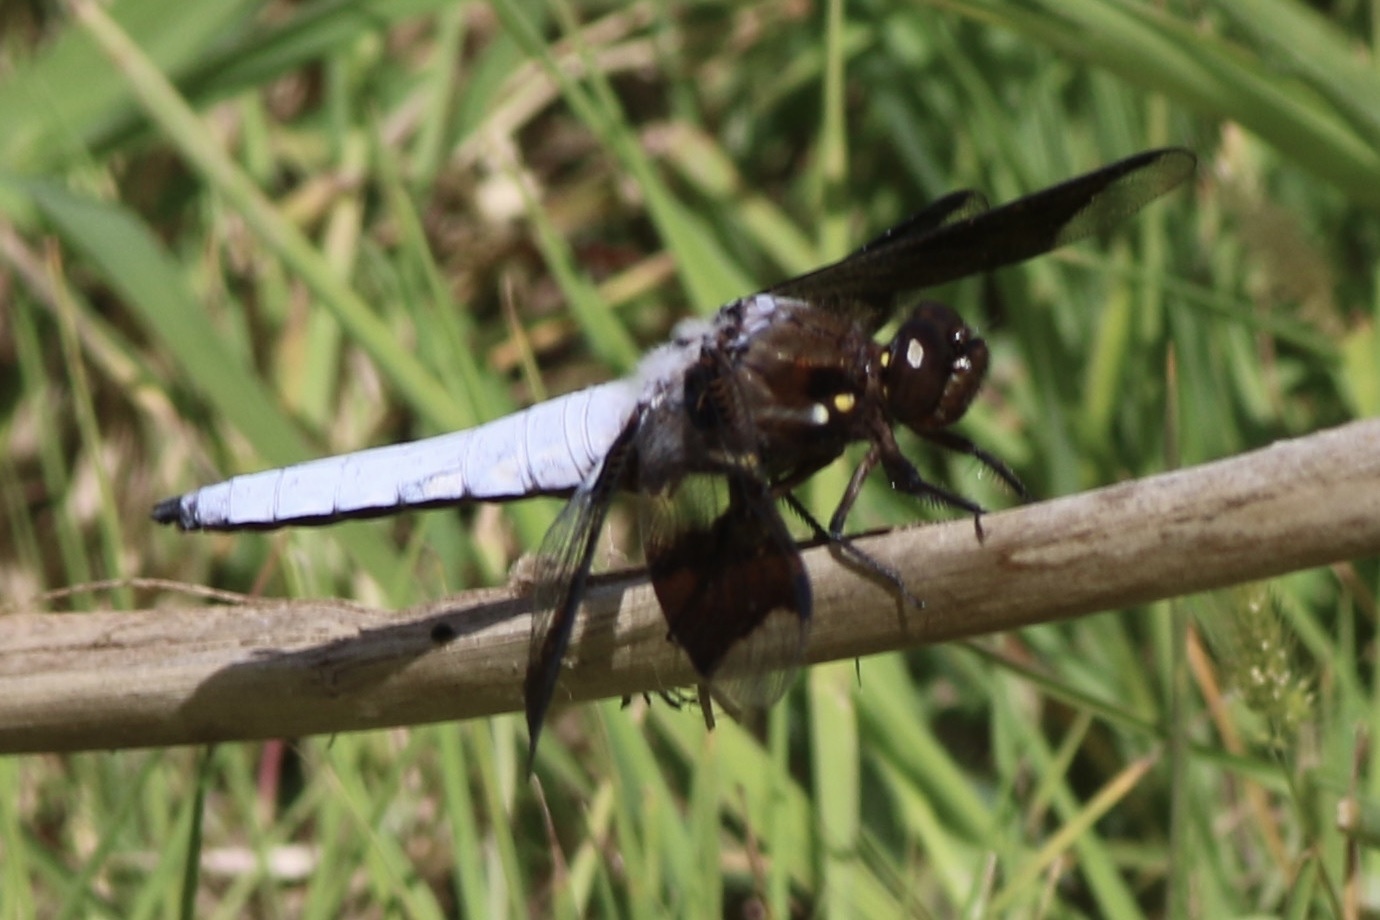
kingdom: Animalia
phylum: Arthropoda
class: Insecta
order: Odonata
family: Libellulidae
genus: Plathemis
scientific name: Plathemis lydia
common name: Common whitetail
